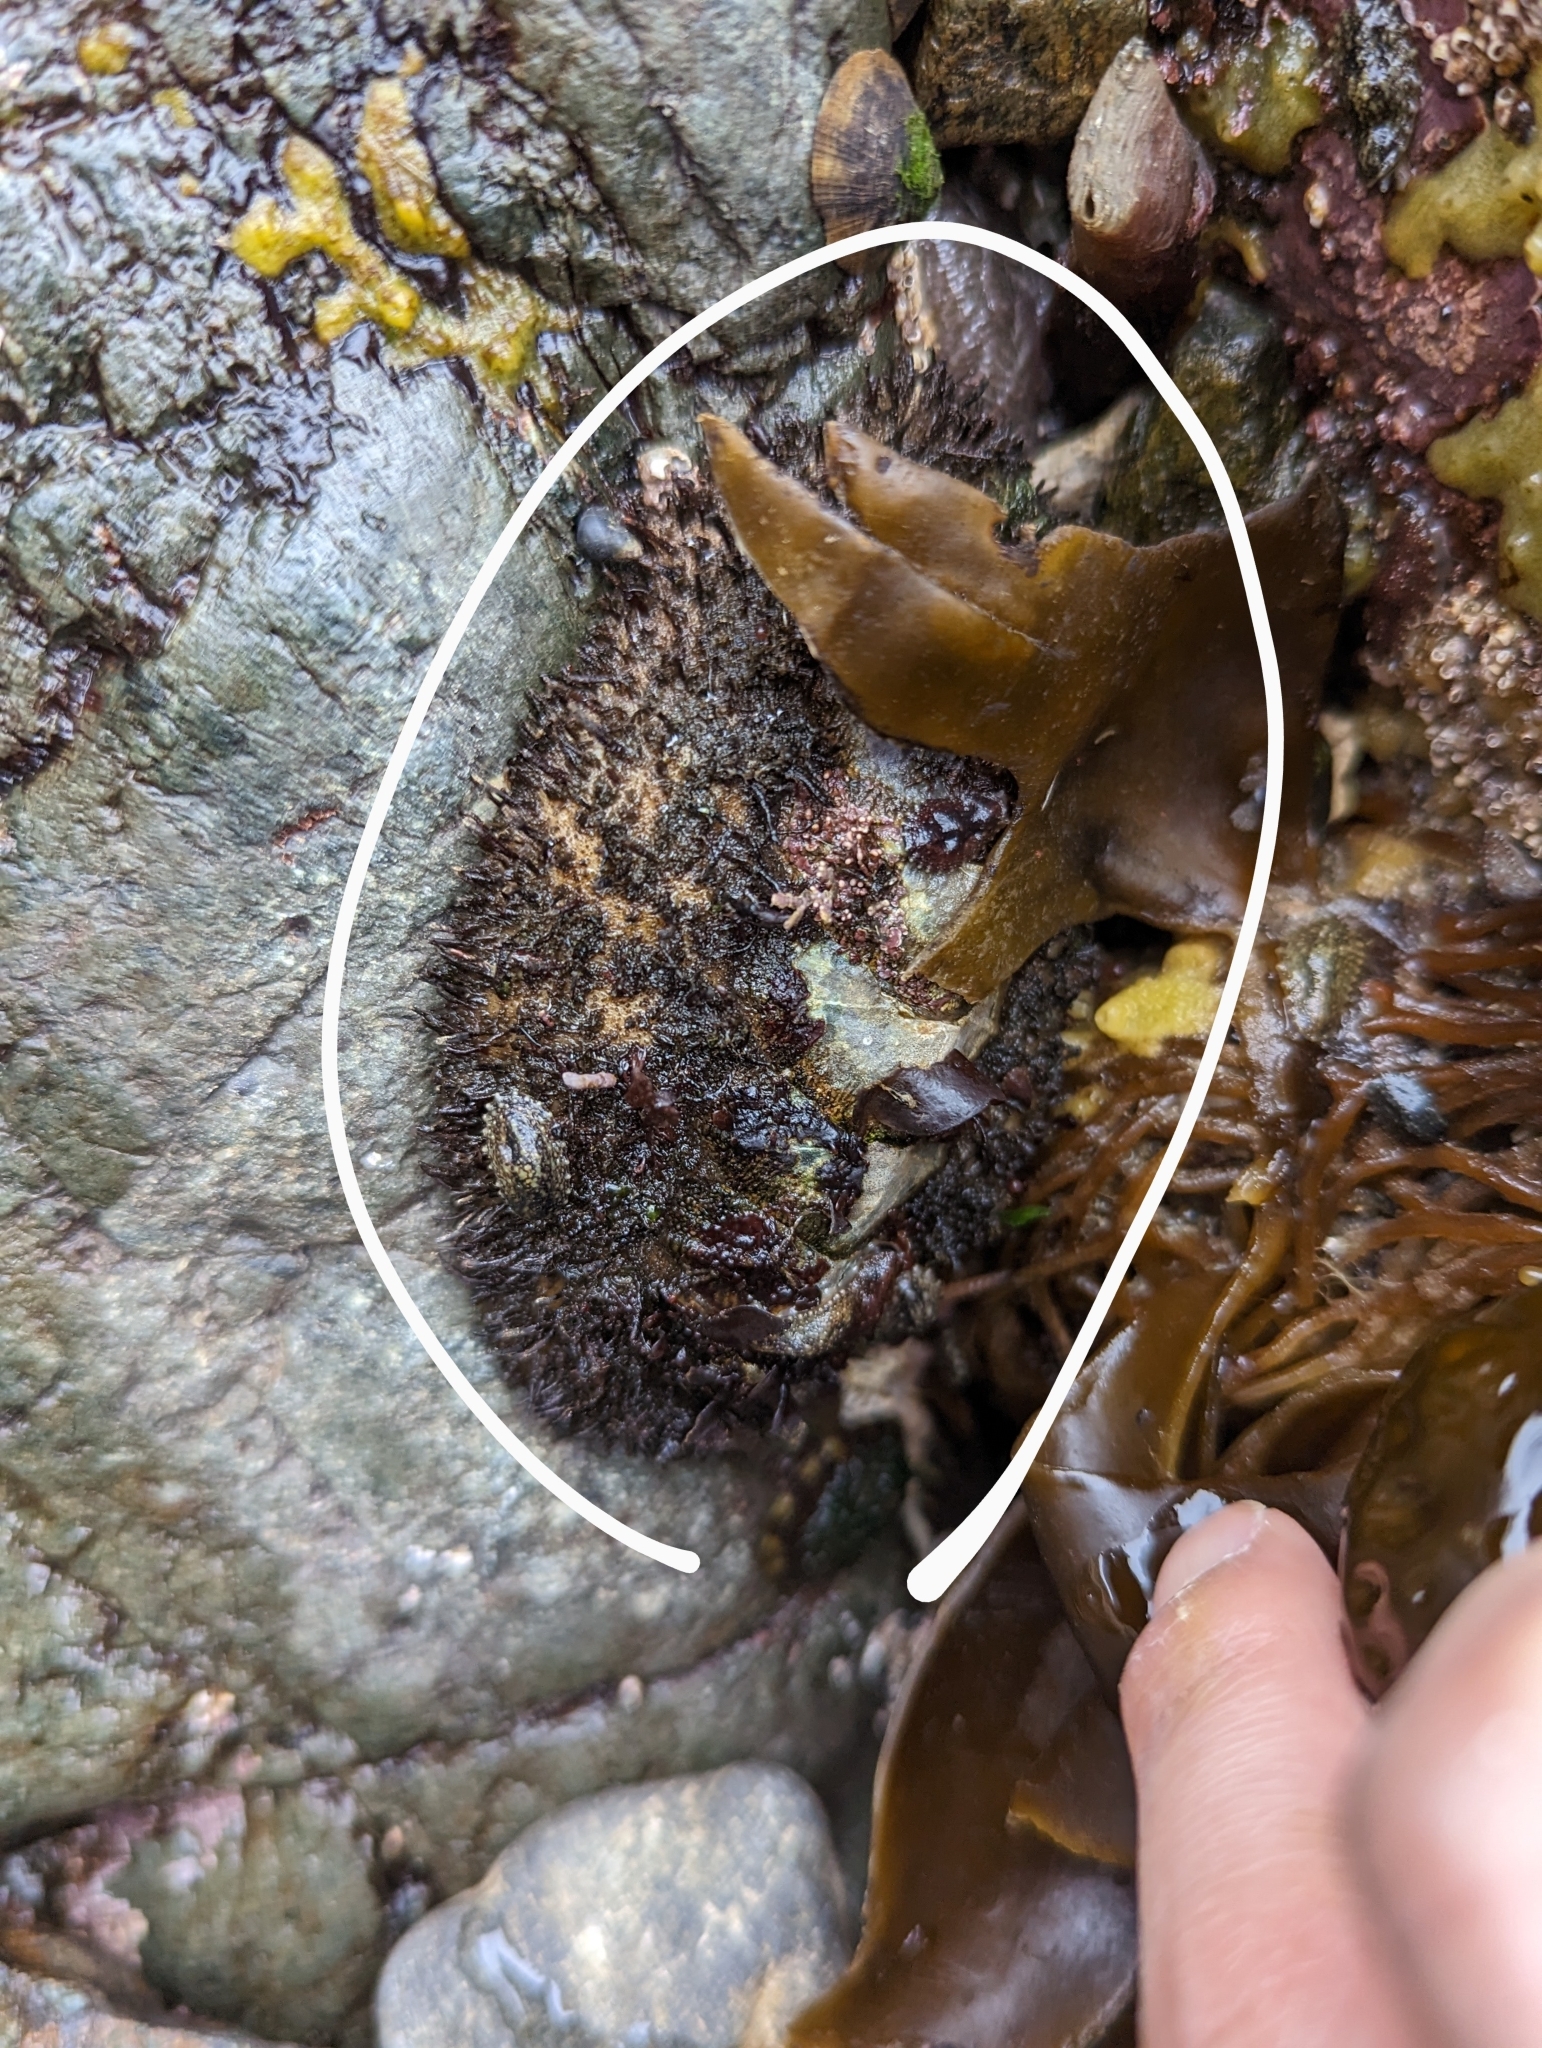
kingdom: Animalia
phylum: Mollusca
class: Polyplacophora
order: Chitonida
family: Mopaliidae
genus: Mopalia
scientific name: Mopalia muscosa
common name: Mossy chiton
